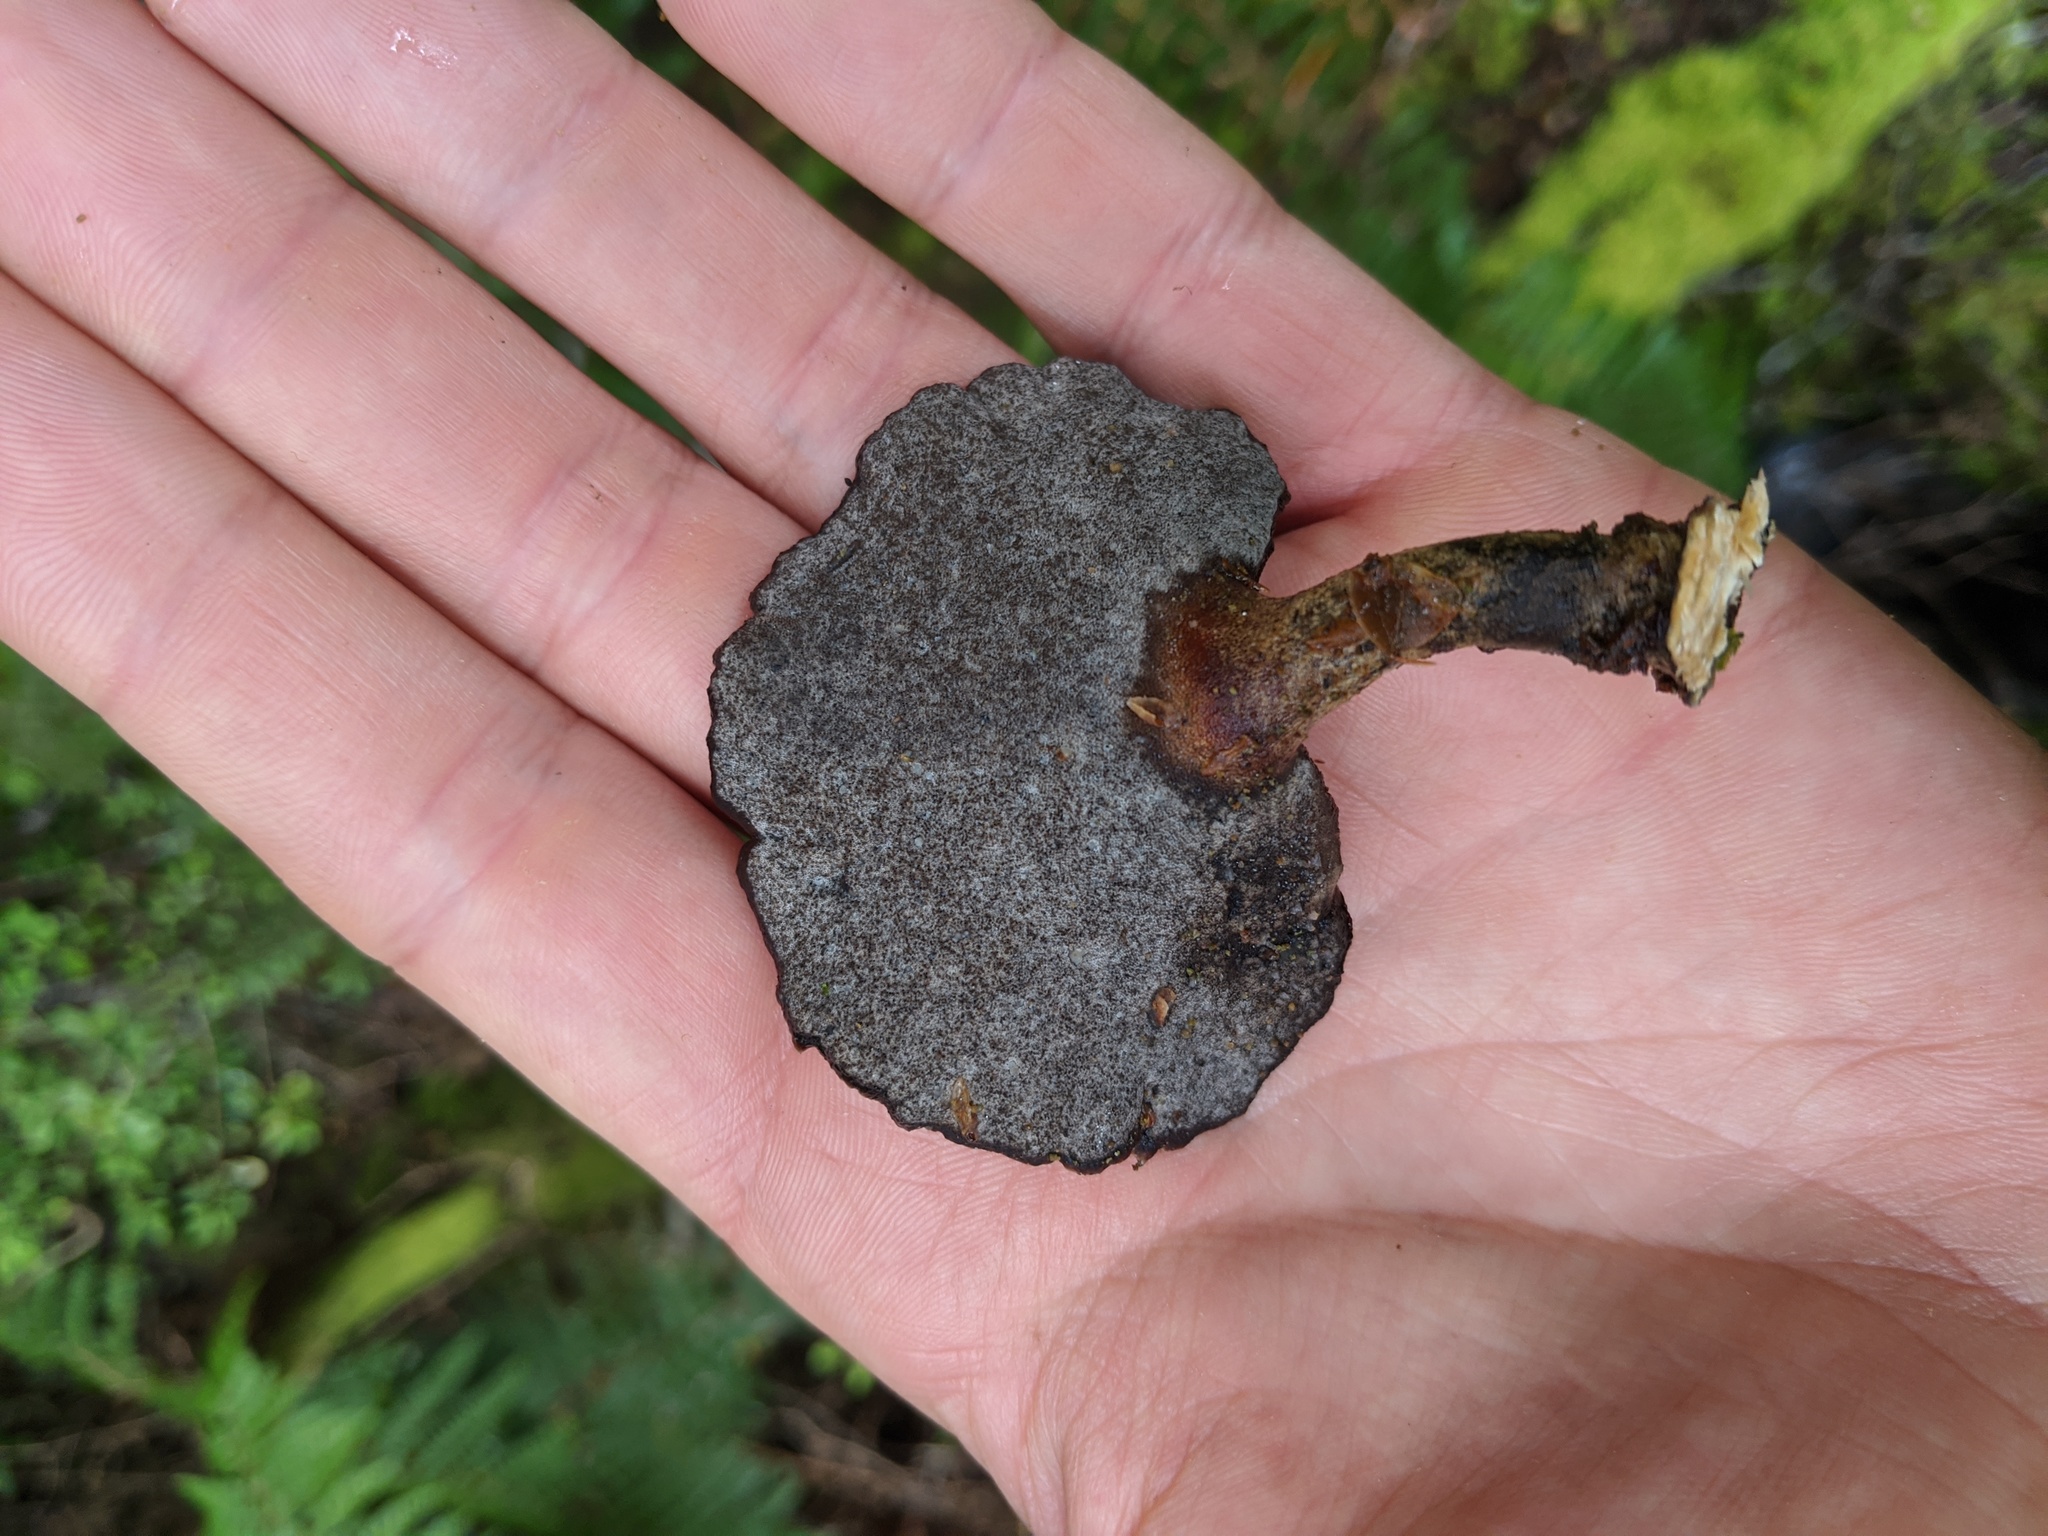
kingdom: Fungi
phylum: Basidiomycota
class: Agaricomycetes
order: Polyporales
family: Polyporaceae
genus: Polyporus
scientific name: Polyporus nigrocristatus
